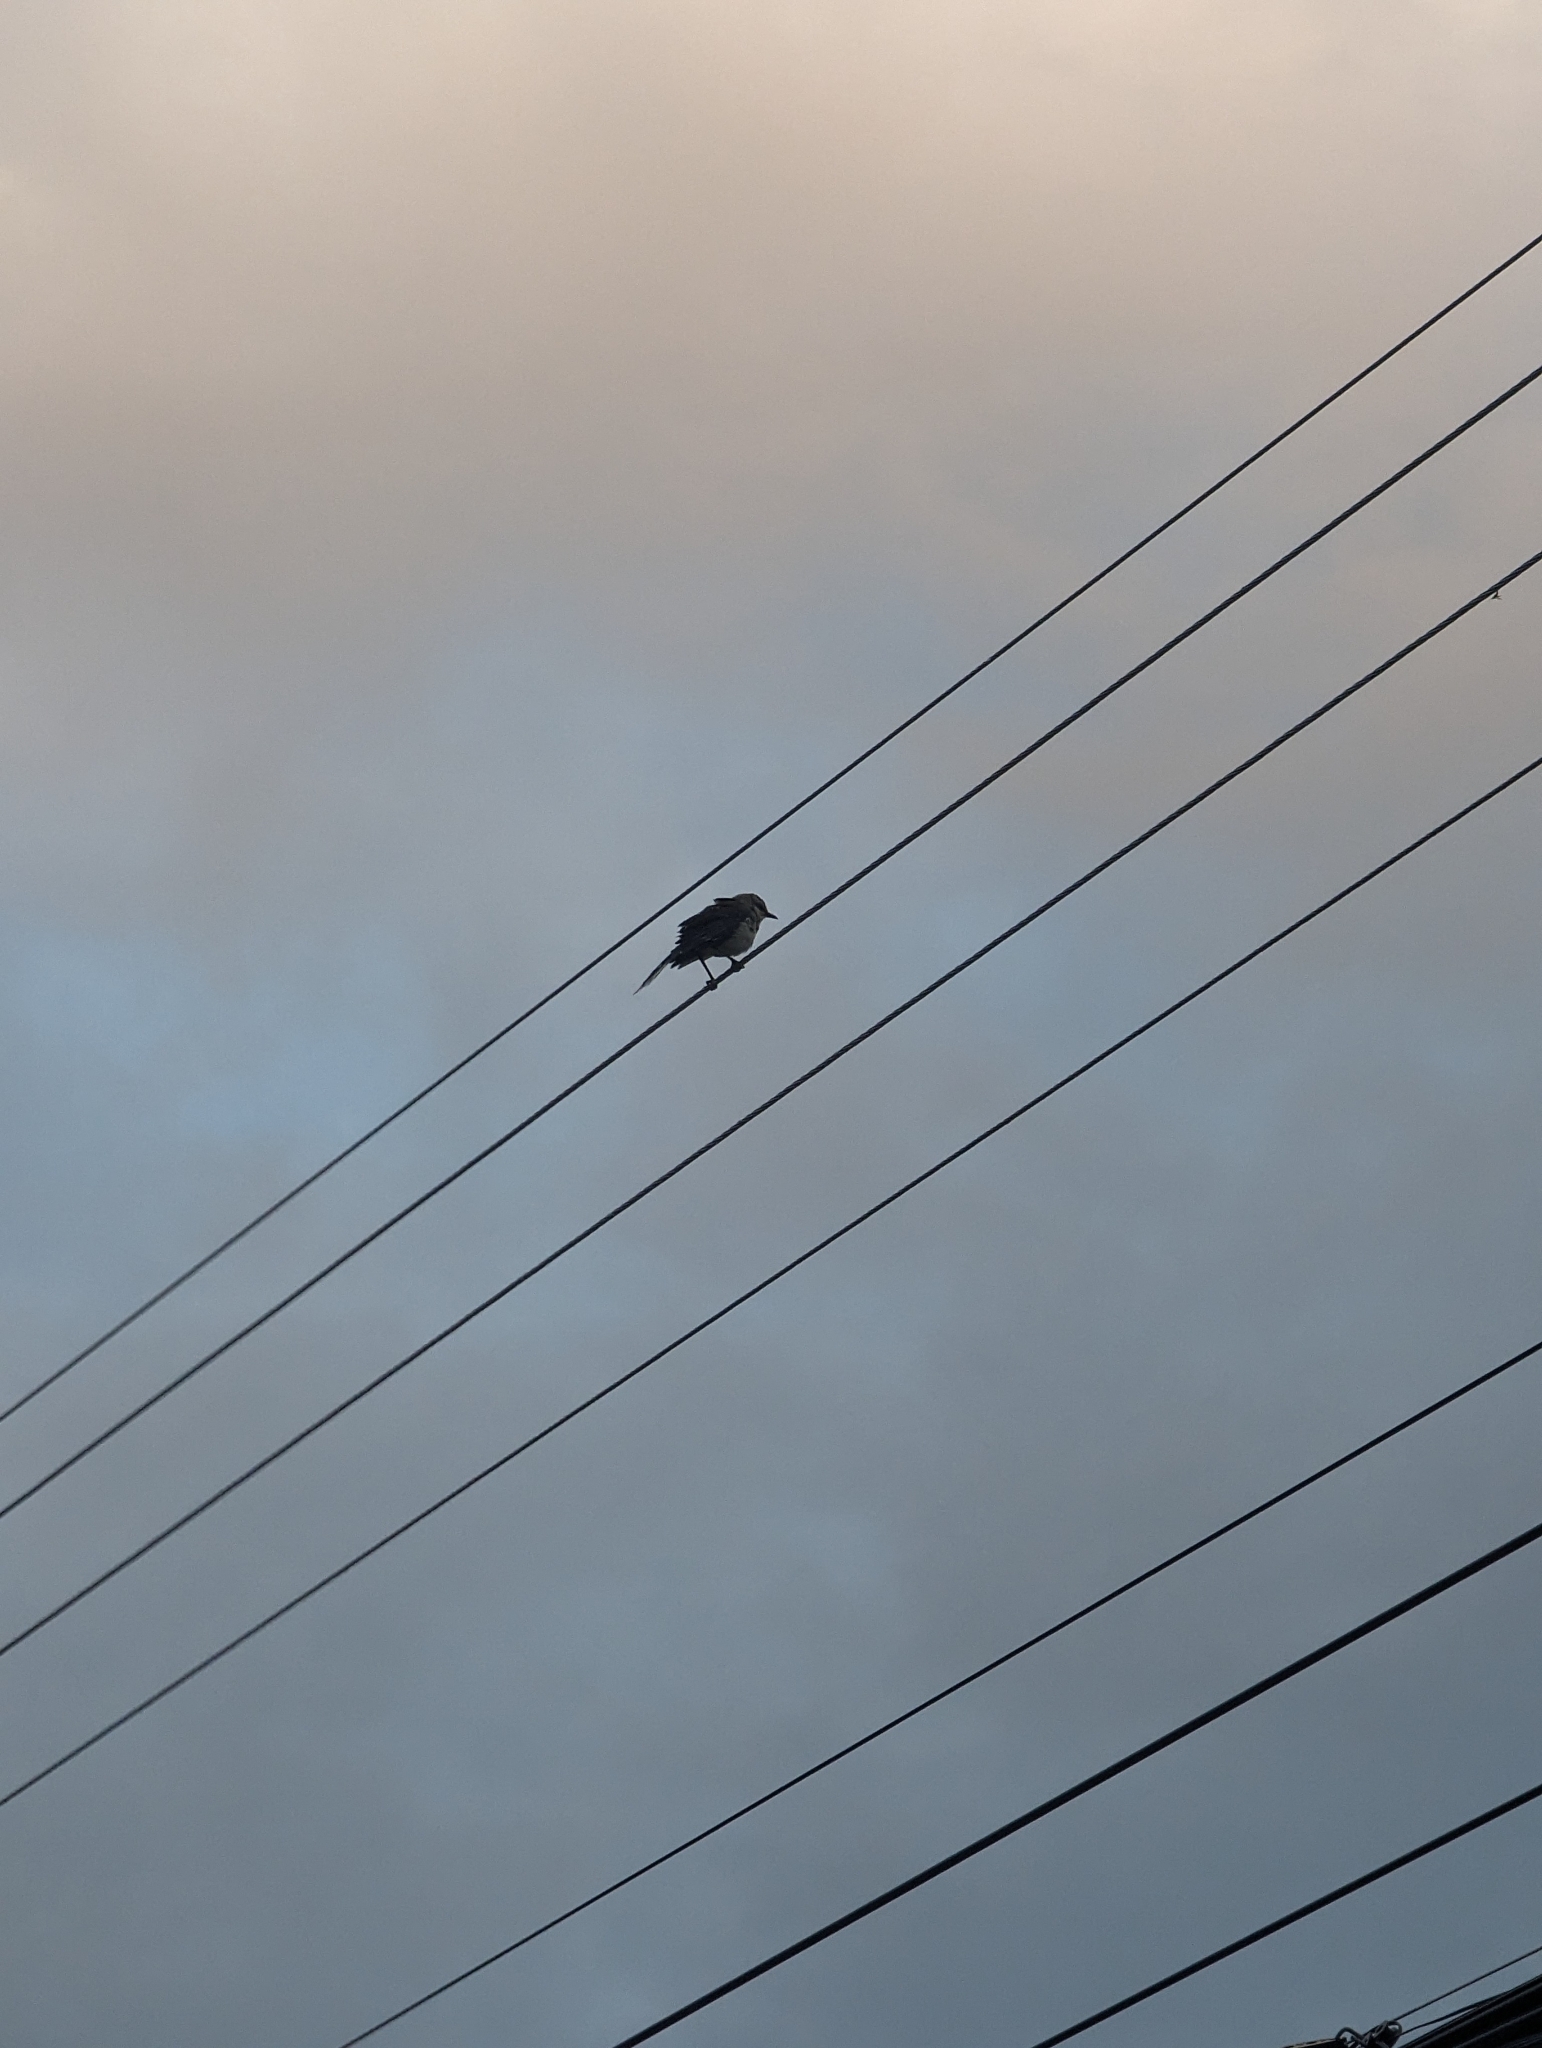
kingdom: Animalia
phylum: Chordata
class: Aves
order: Passeriformes
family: Mimidae
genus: Mimus
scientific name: Mimus gilvus
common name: Tropical mockingbird
